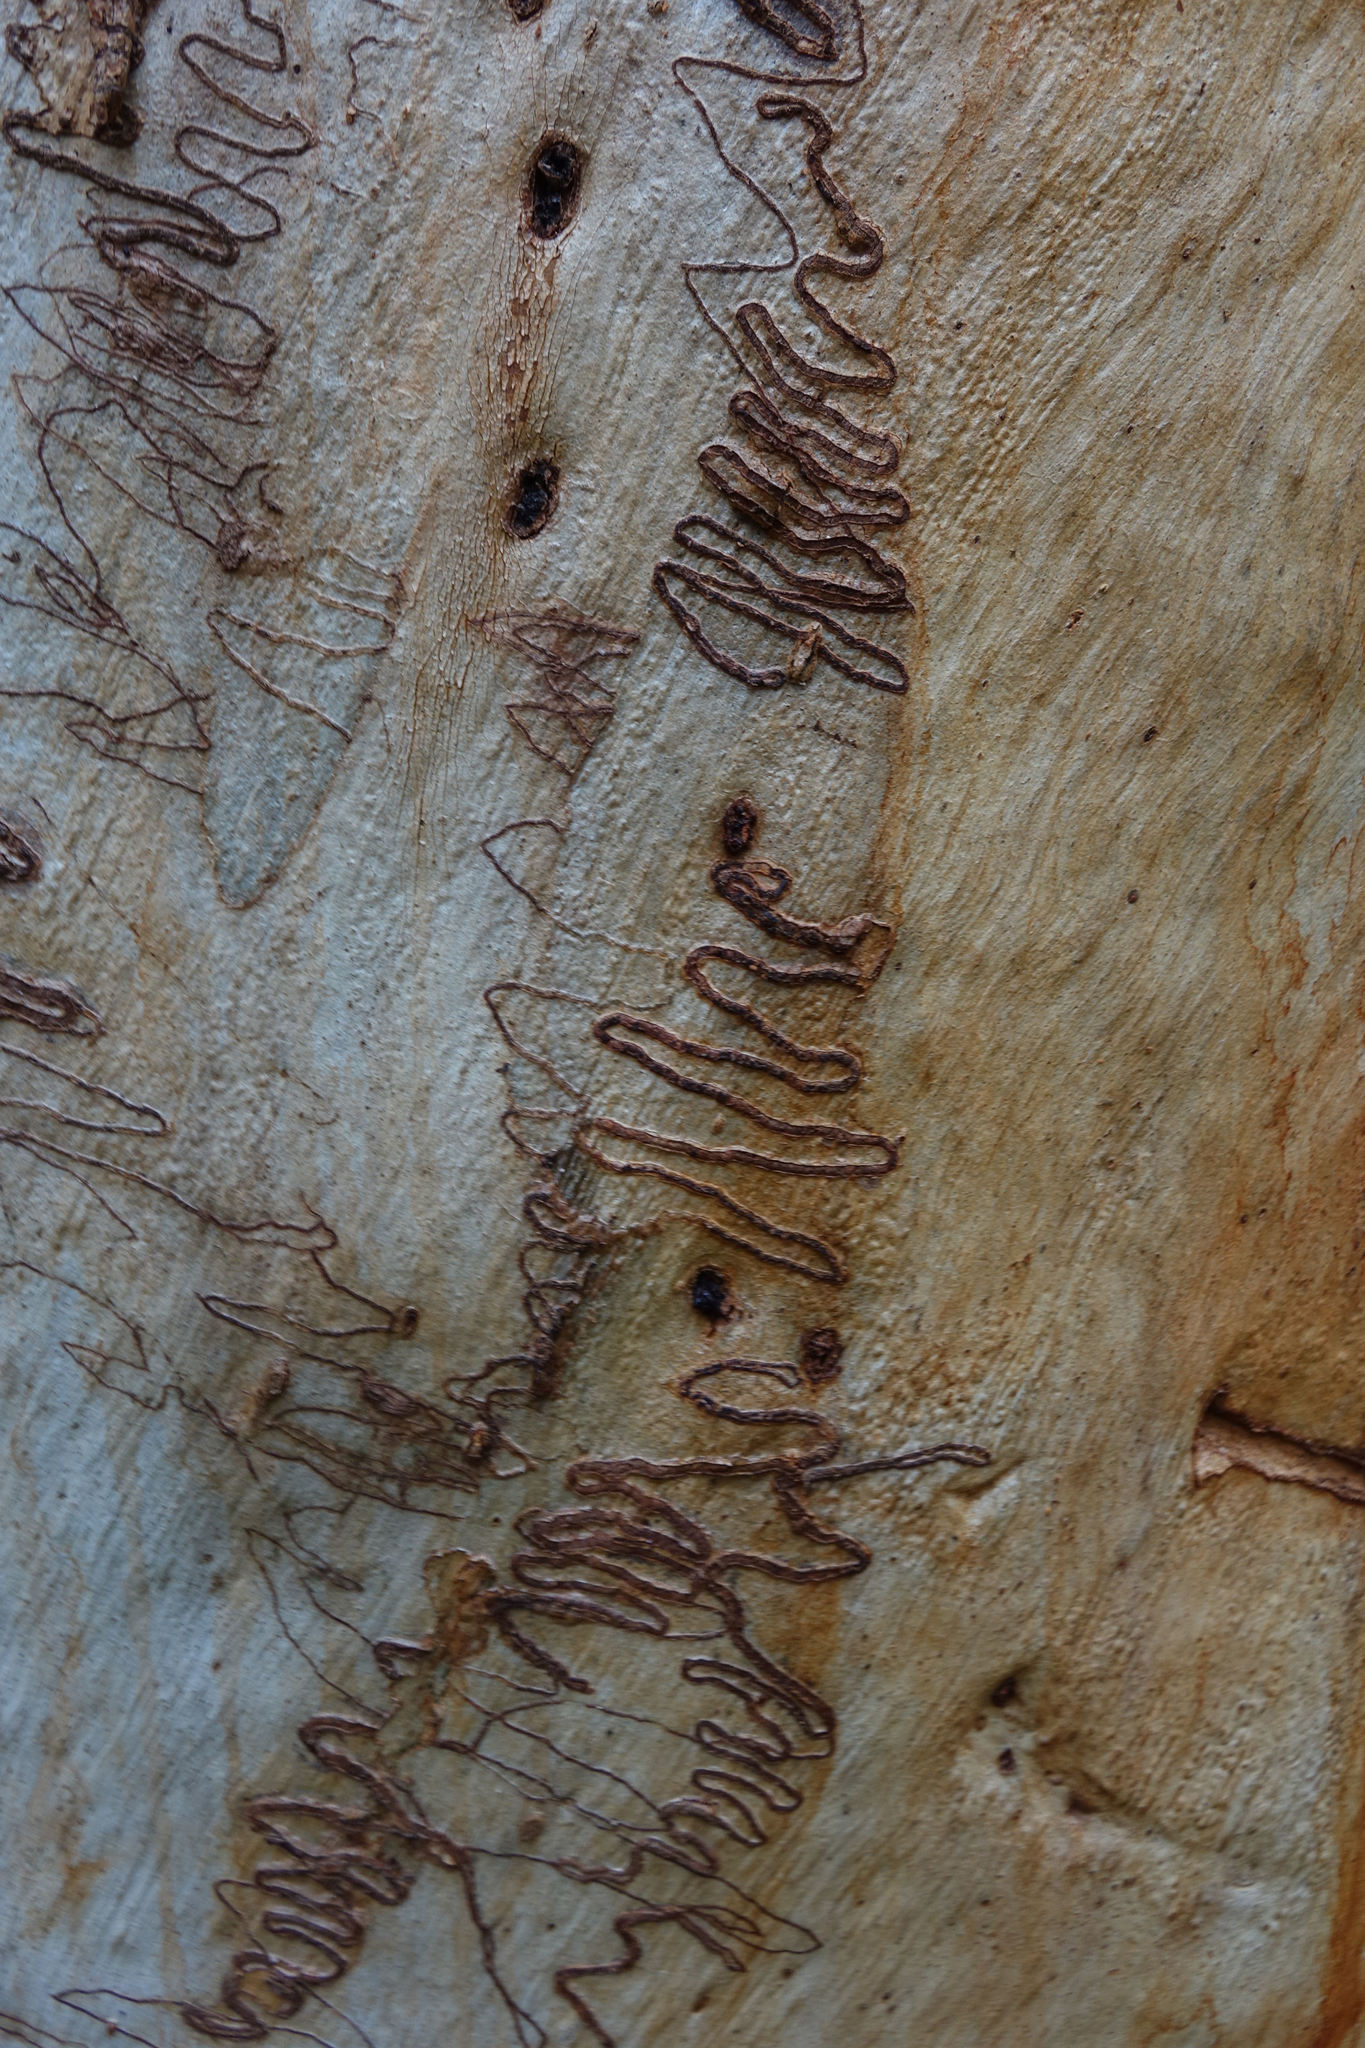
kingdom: Plantae
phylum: Tracheophyta
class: Magnoliopsida
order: Myrtales
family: Myrtaceae
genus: Eucalyptus
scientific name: Eucalyptus racemosa
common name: Scribbly gum
